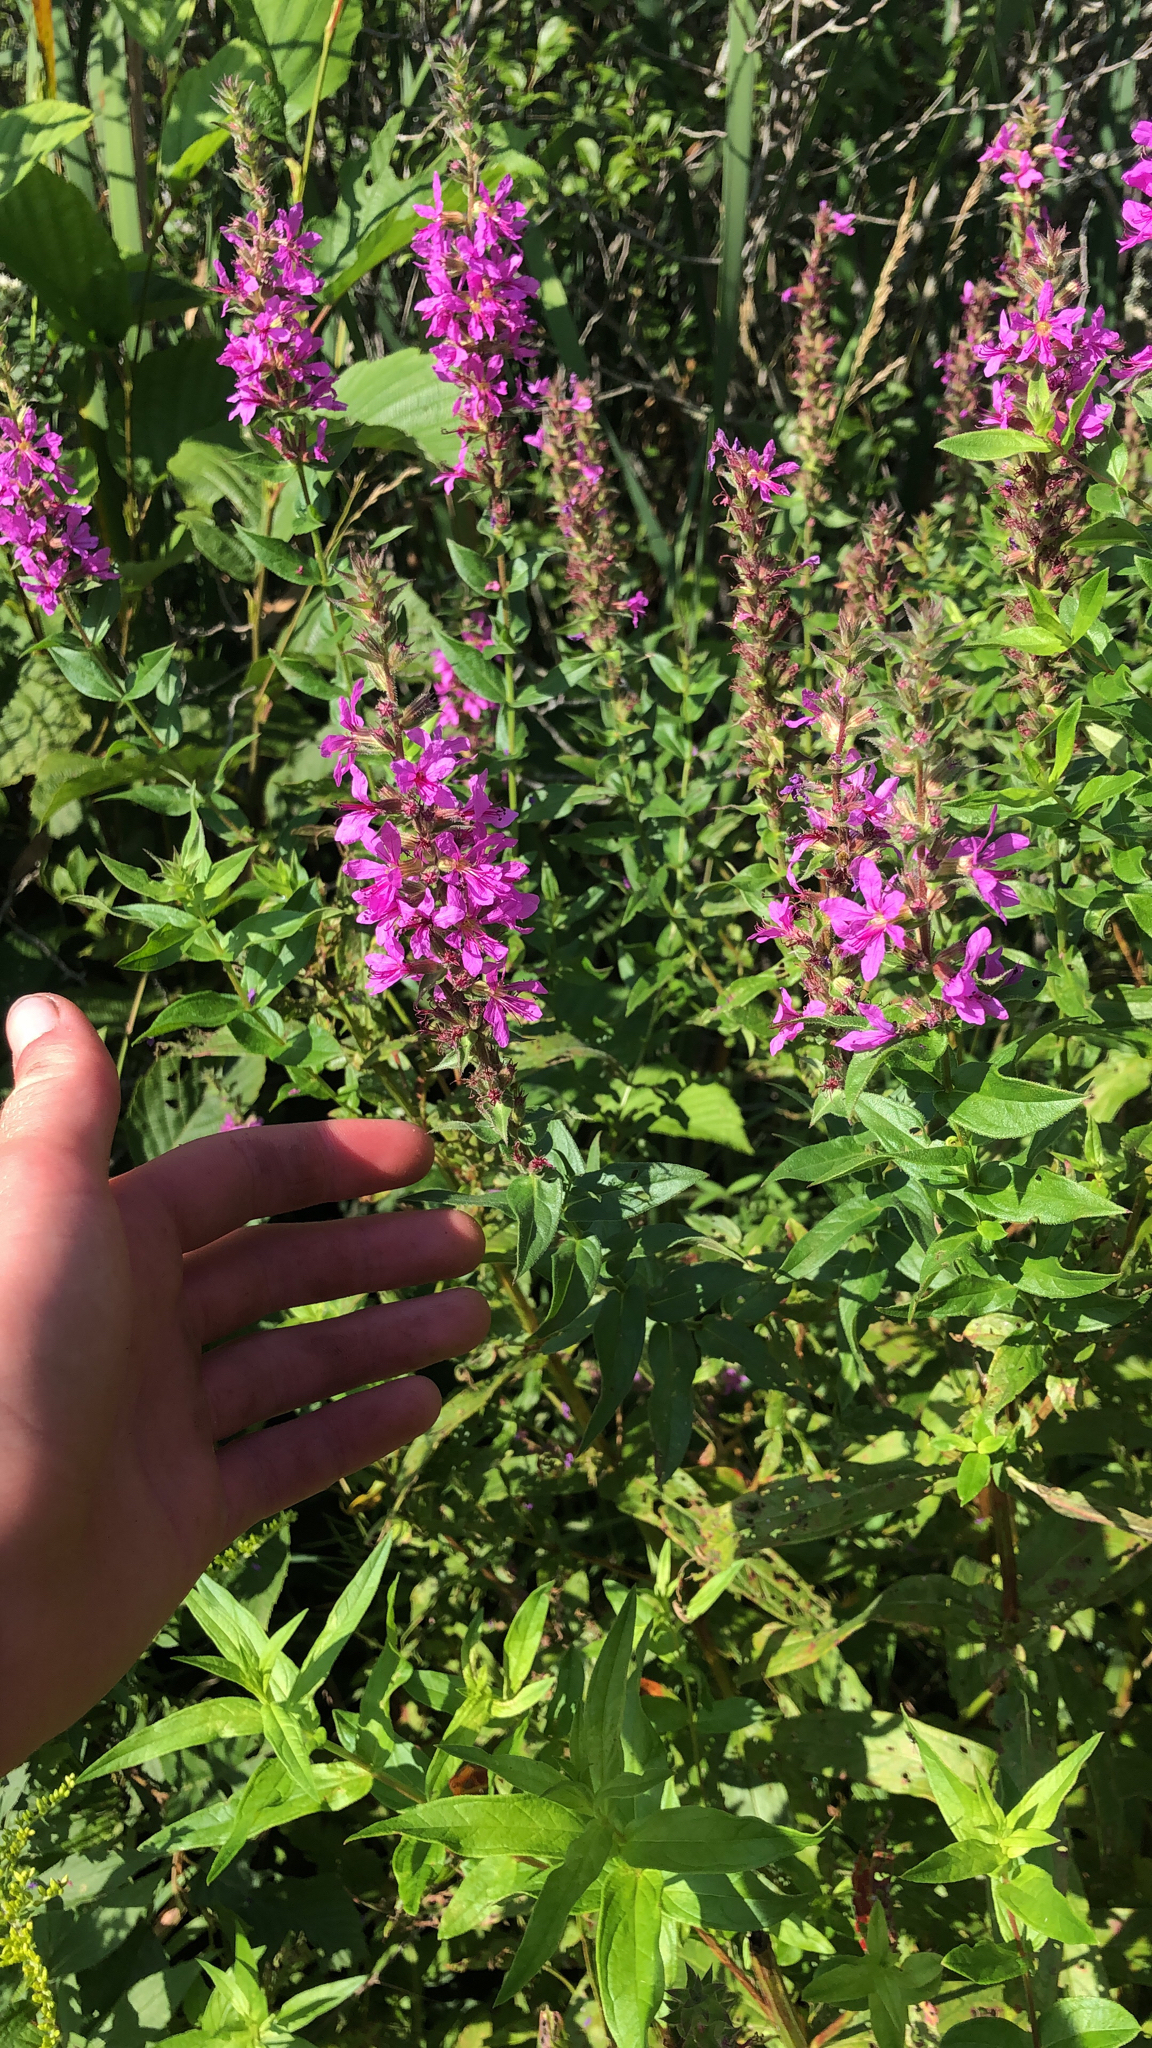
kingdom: Plantae
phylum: Tracheophyta
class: Magnoliopsida
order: Myrtales
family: Lythraceae
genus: Lythrum
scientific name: Lythrum salicaria
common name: Purple loosestrife
